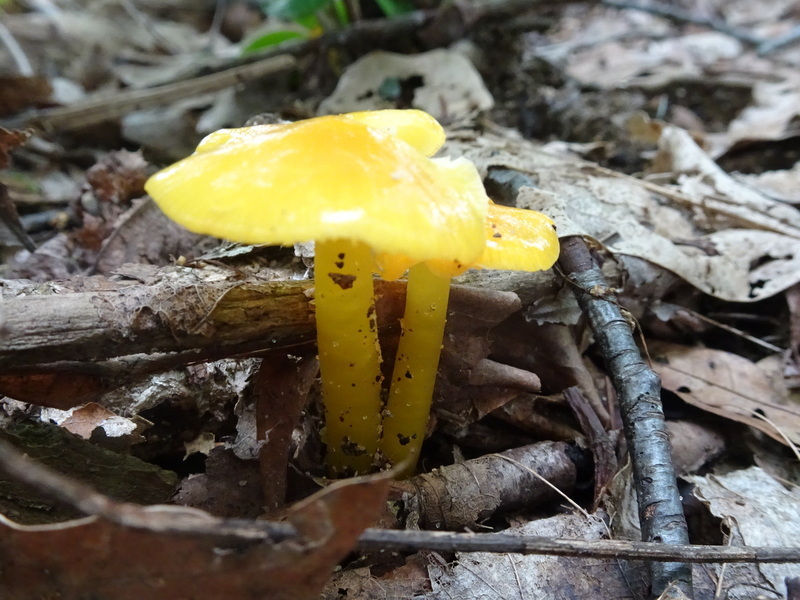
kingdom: Fungi
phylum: Basidiomycota
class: Agaricomycetes
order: Agaricales
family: Hygrophoraceae
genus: Hygrocybe
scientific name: Hygrocybe flavescens
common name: Golden waxy cap
